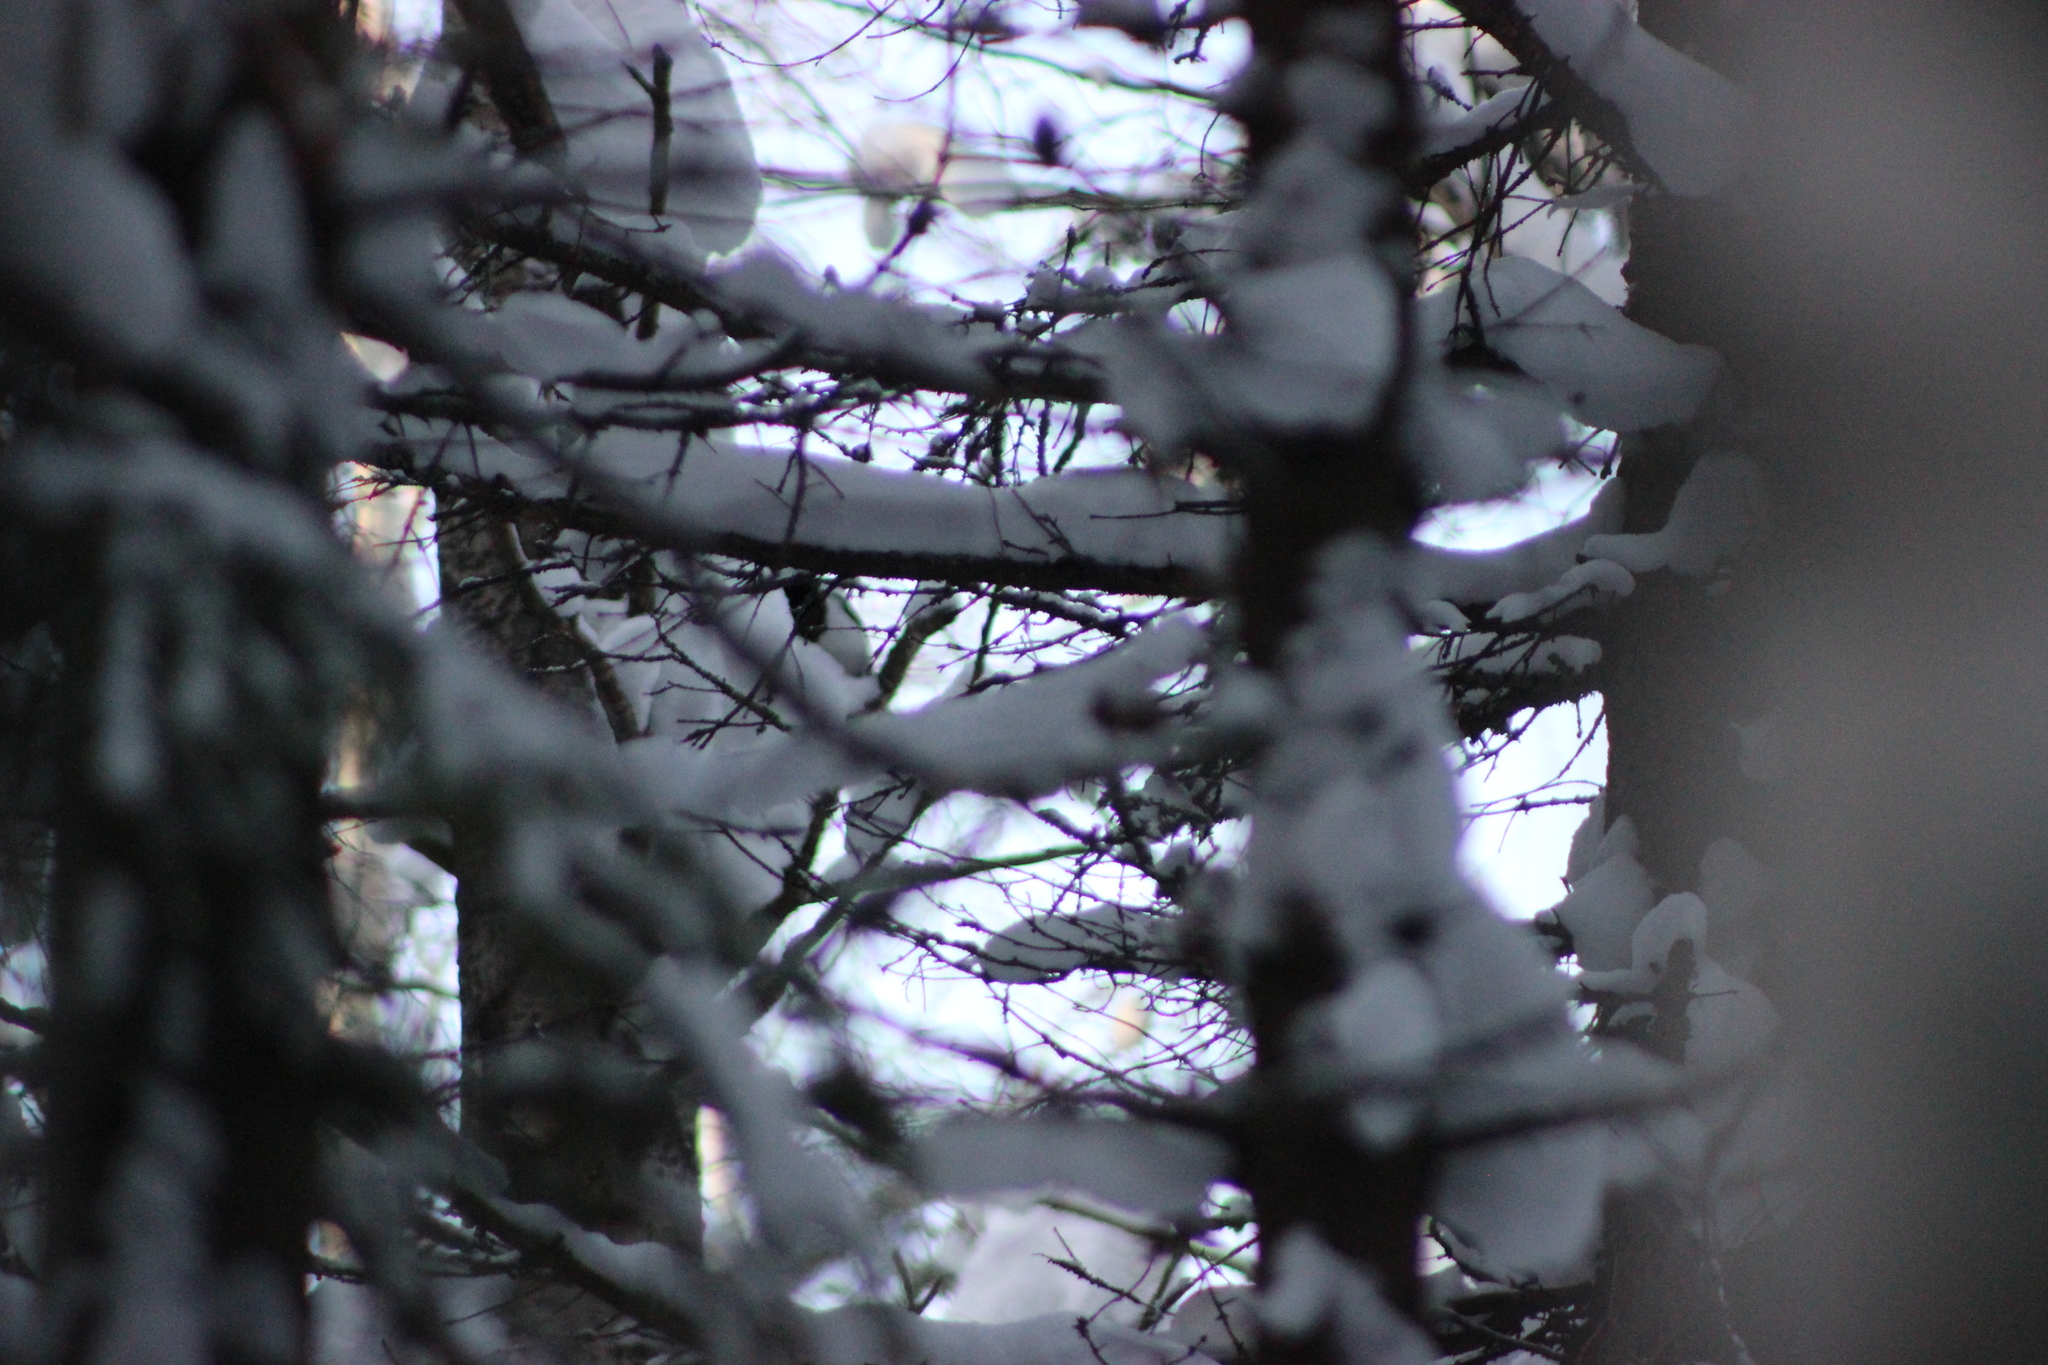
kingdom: Animalia
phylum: Chordata
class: Aves
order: Passeriformes
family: Corvidae
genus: Pica
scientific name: Pica pica
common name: Eurasian magpie
